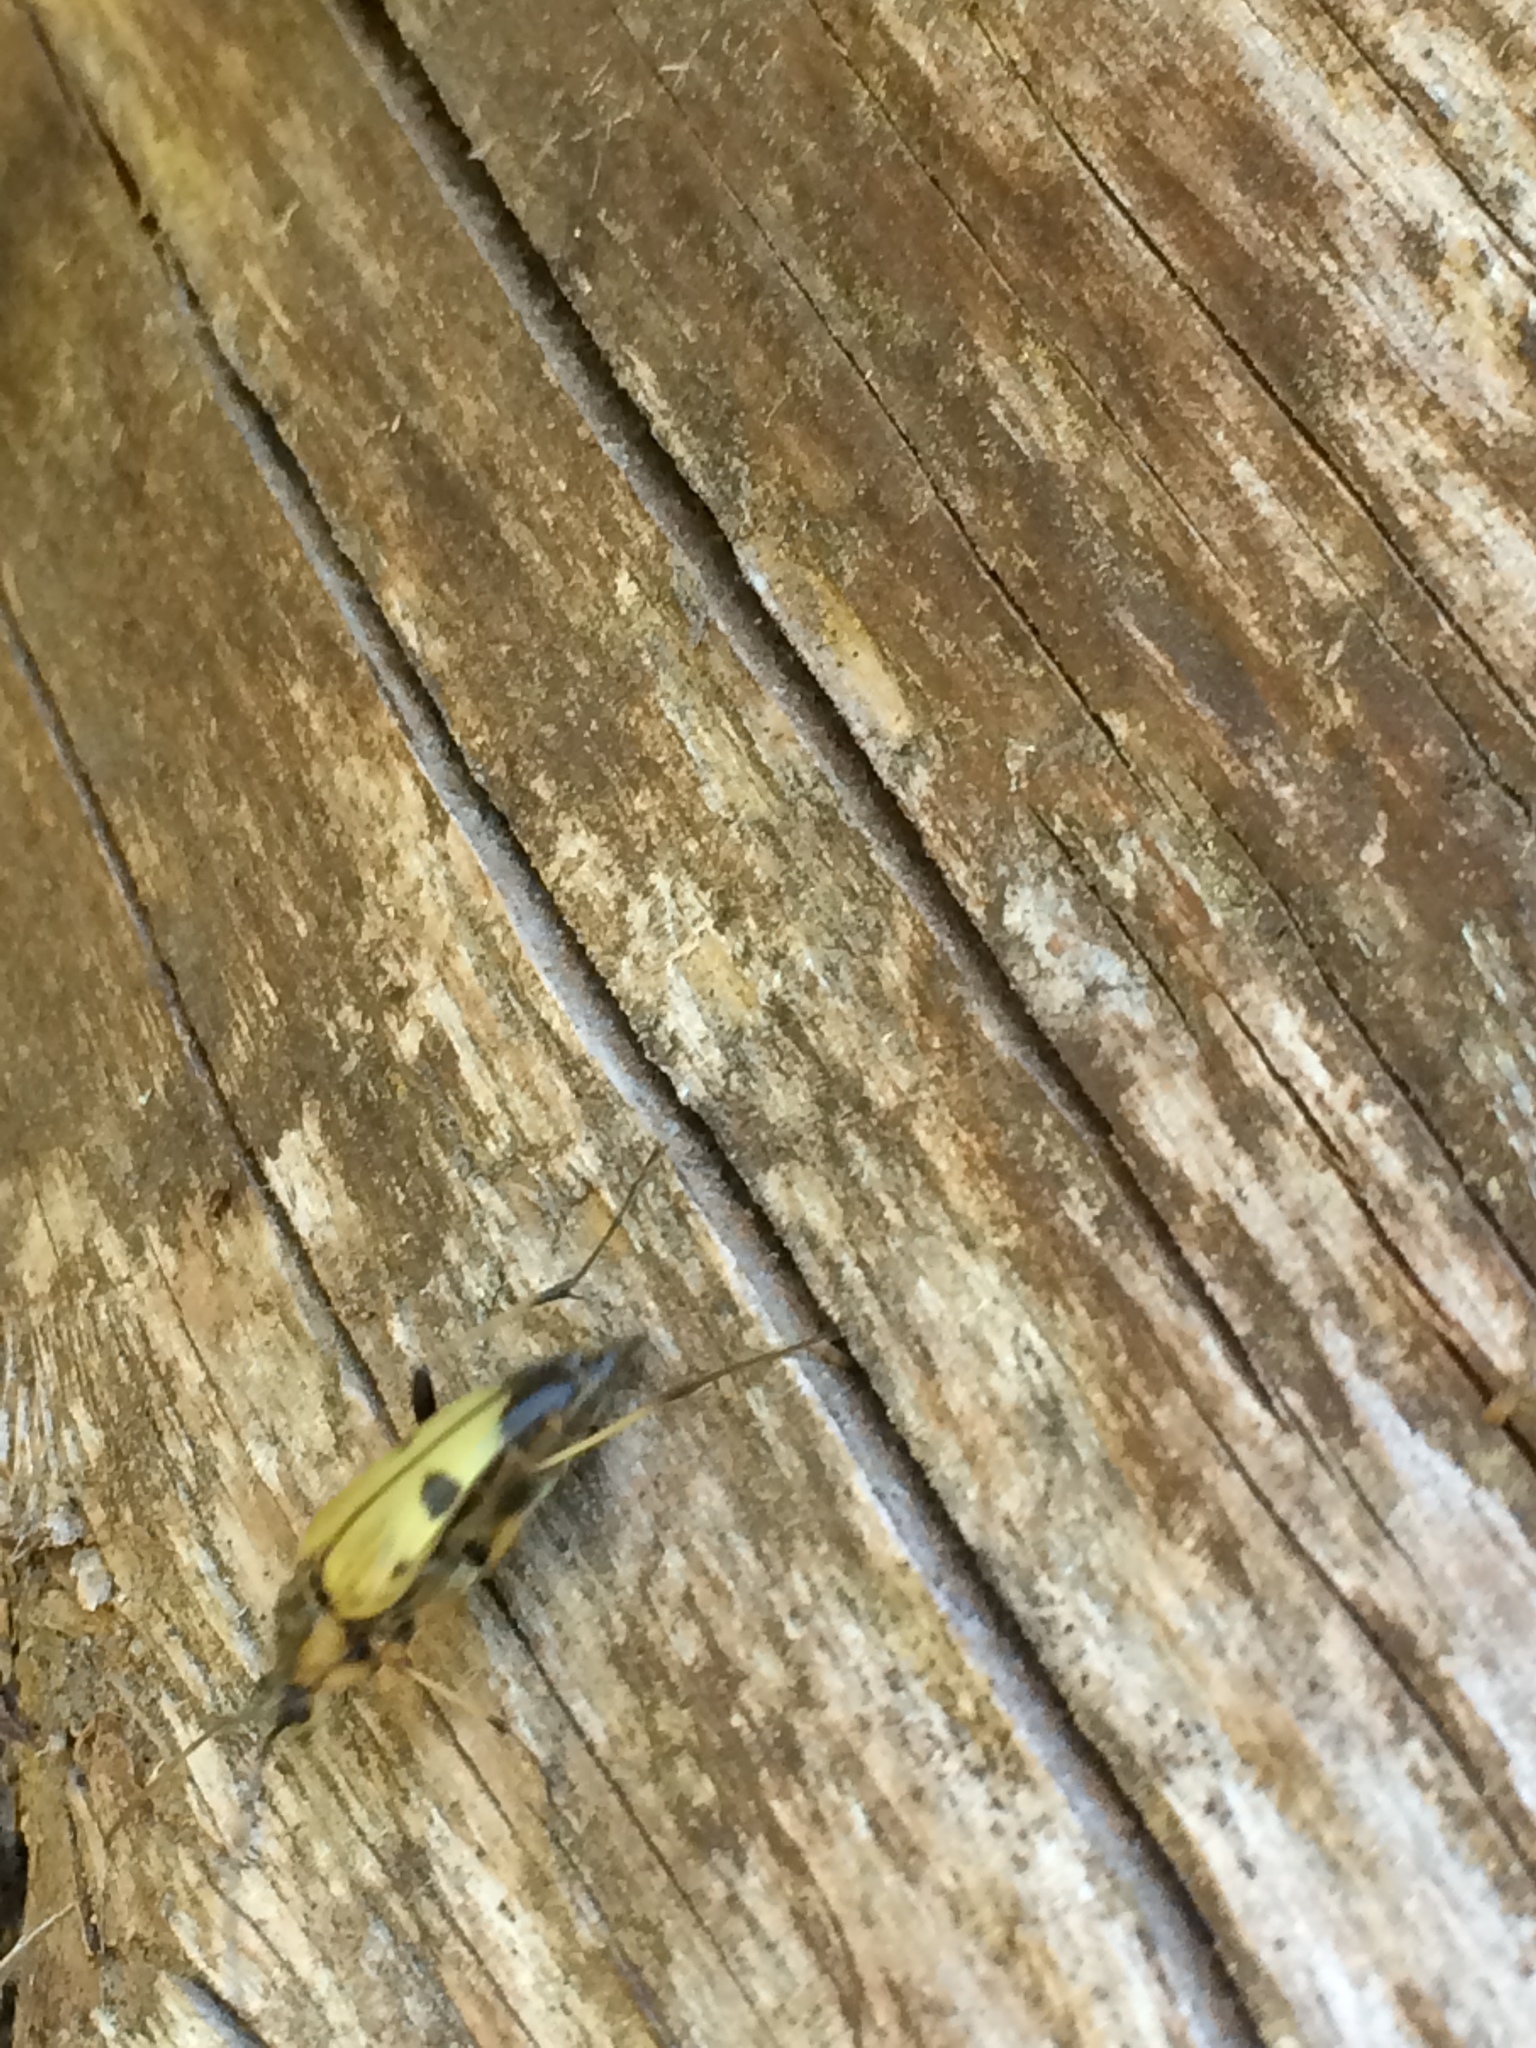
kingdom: Animalia
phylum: Arthropoda
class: Insecta
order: Coleoptera
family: Cerambycidae
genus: Etorofus
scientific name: Etorofus obliteratus
